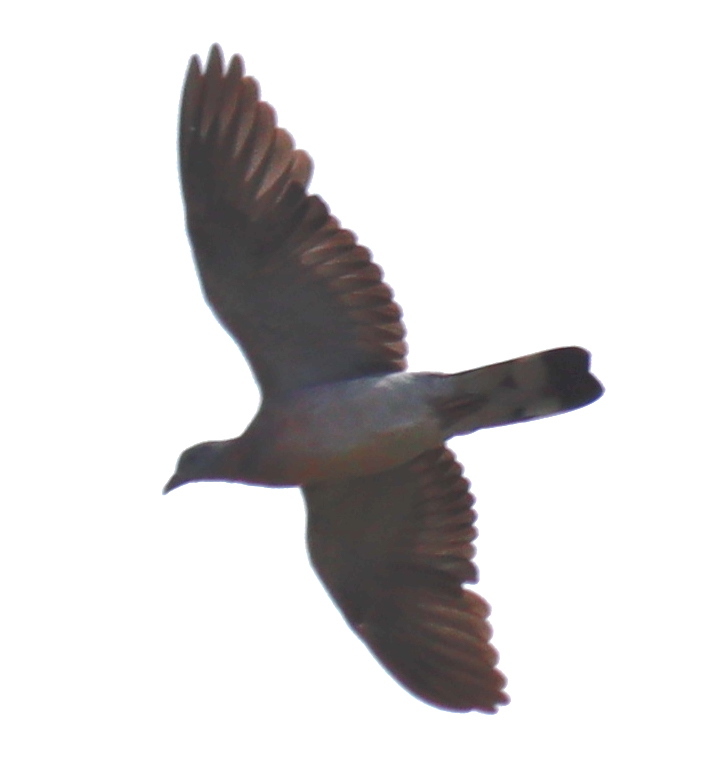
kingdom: Animalia
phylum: Chordata
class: Aves
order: Columbiformes
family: Columbidae
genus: Columba
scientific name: Columba palumbus
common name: Common wood pigeon
